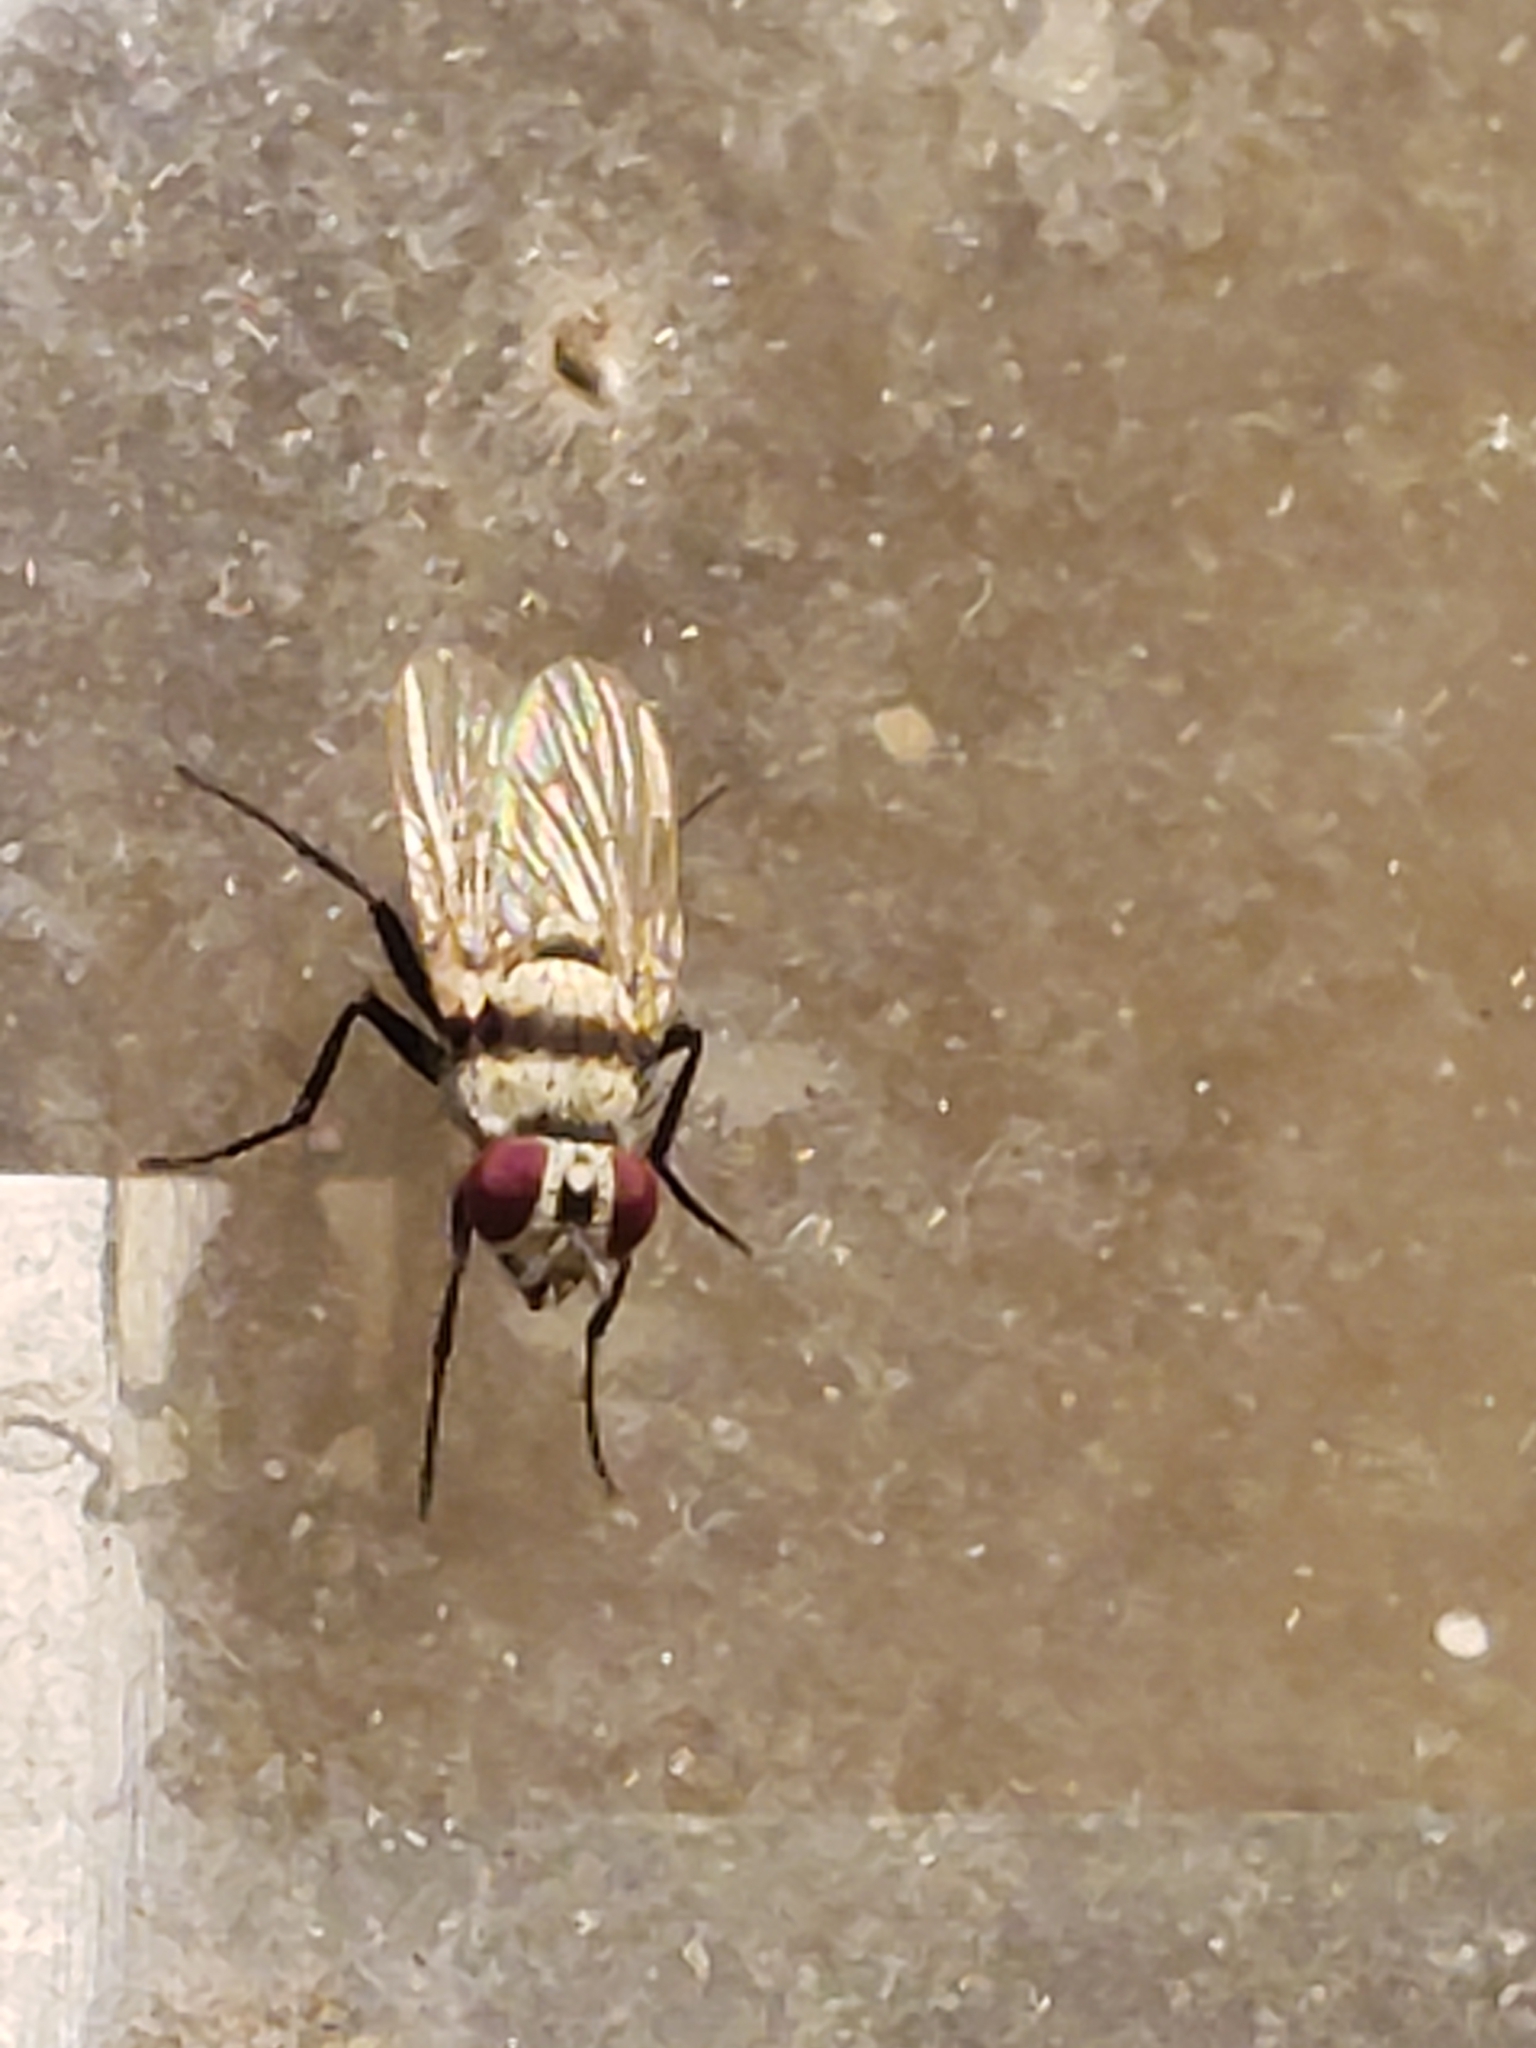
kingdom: Animalia
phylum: Arthropoda
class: Insecta
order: Diptera
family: Anthomyiidae
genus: Anthomyia
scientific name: Anthomyia illocata
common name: Fly
